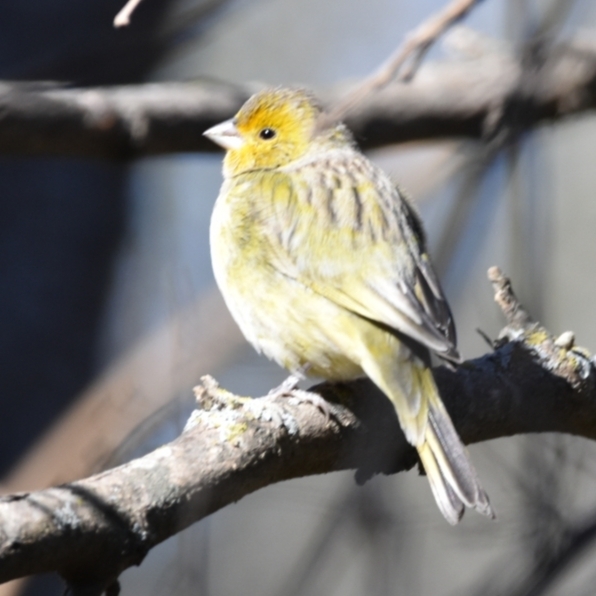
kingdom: Animalia
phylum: Chordata
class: Aves
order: Passeriformes
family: Thraupidae
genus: Sicalis
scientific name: Sicalis flaveola
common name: Saffron finch
